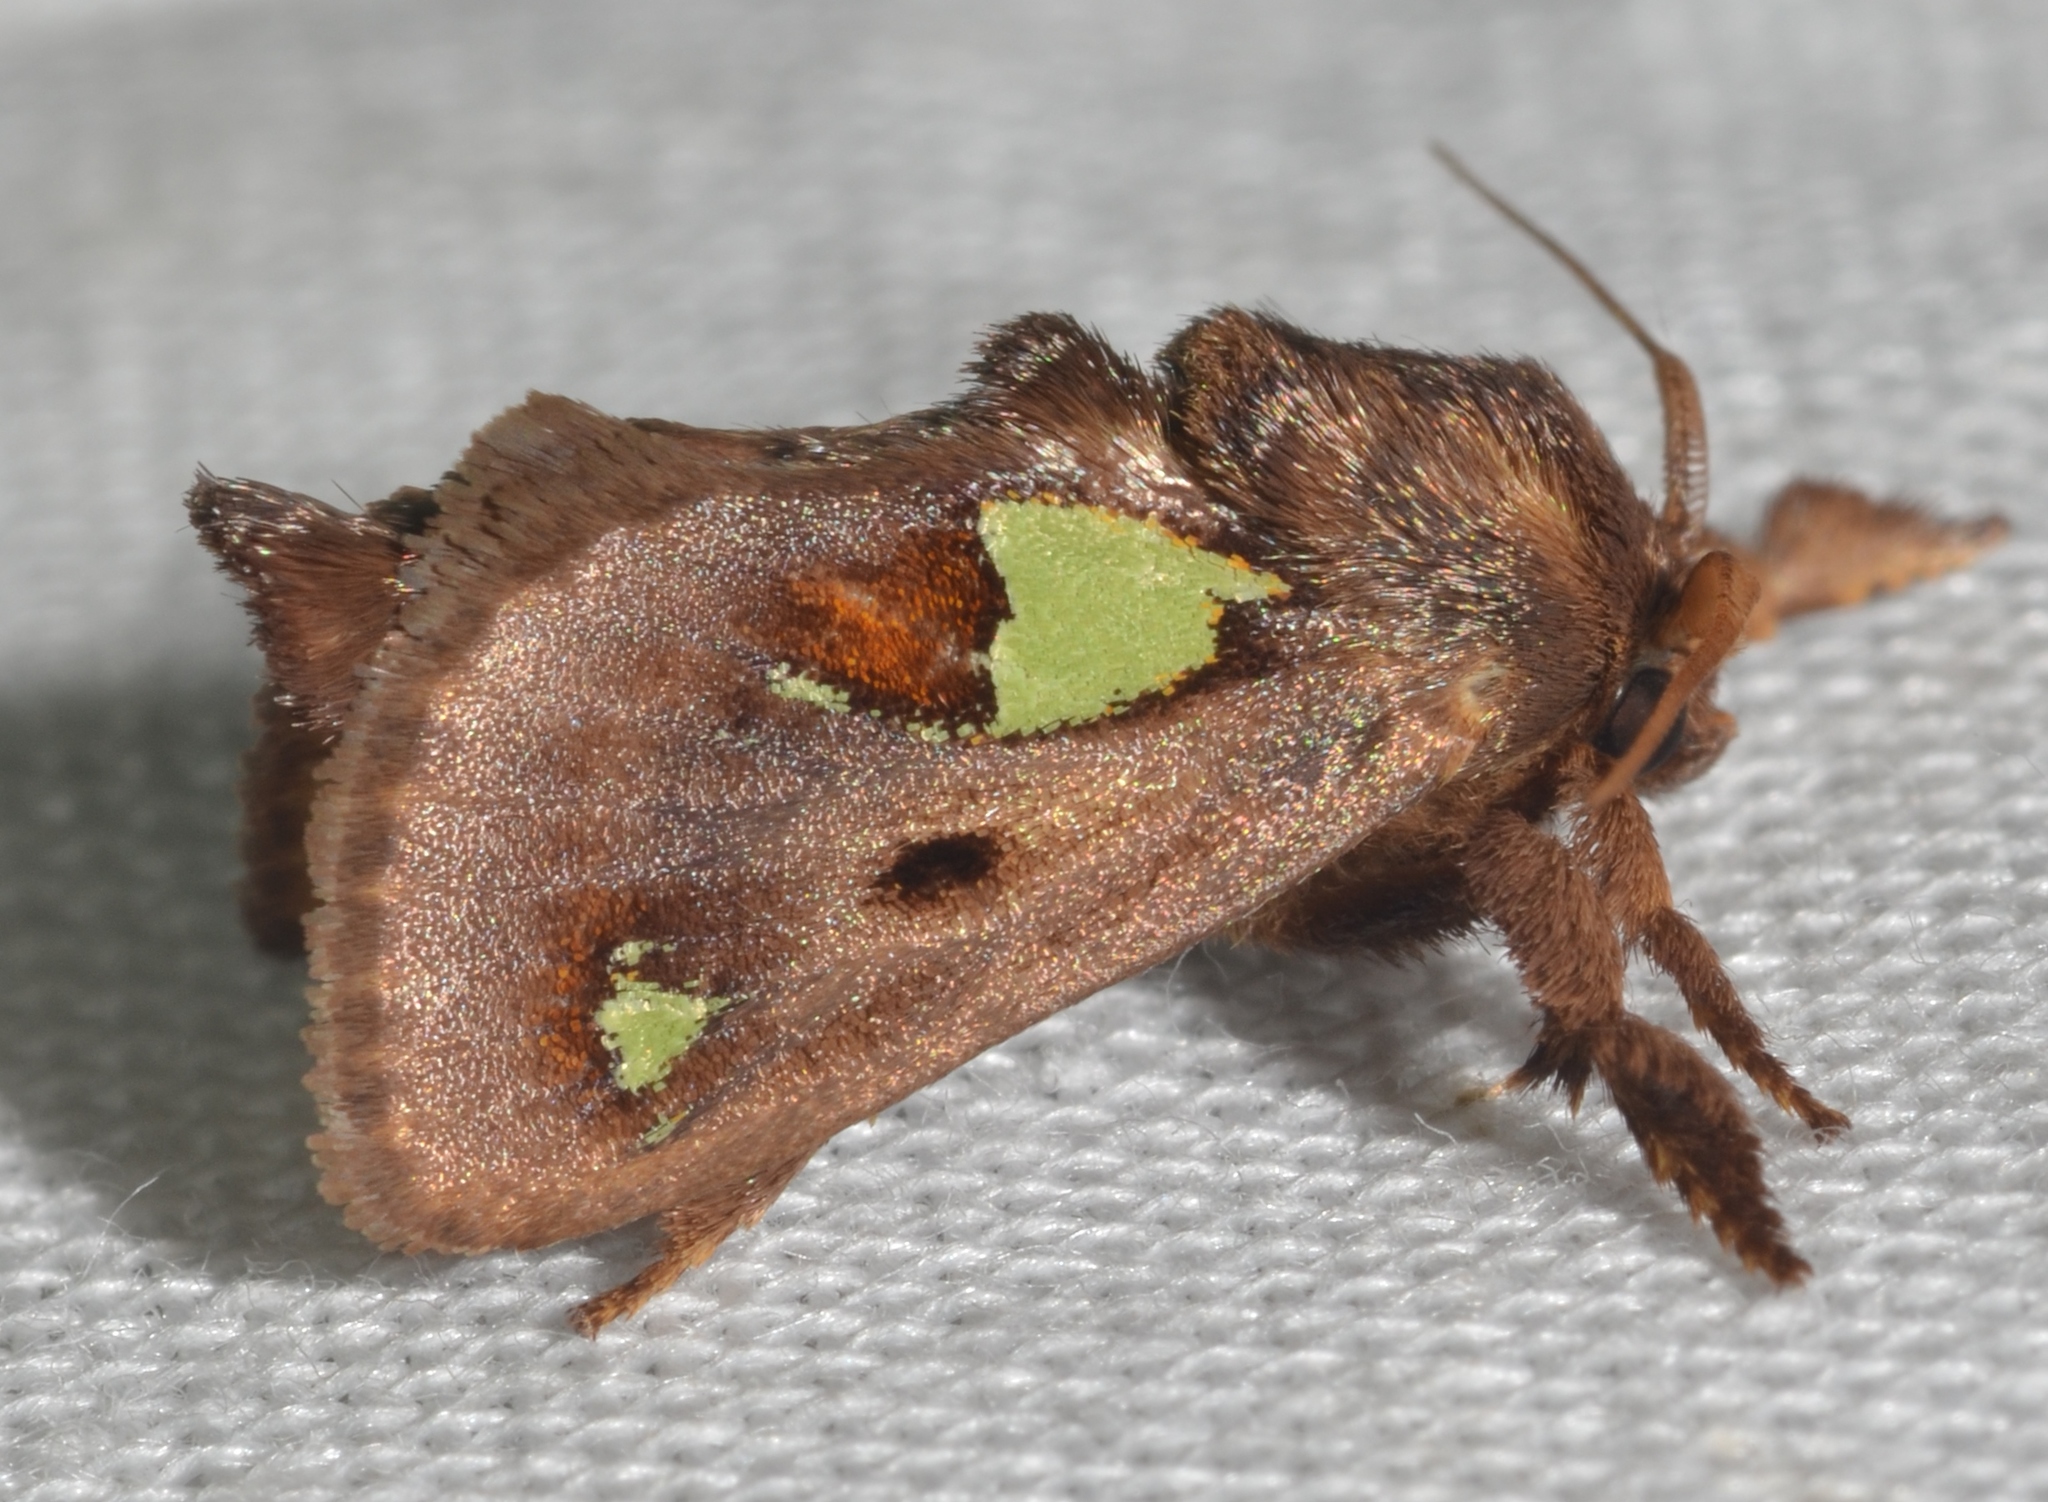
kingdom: Animalia
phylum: Arthropoda
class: Insecta
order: Lepidoptera
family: Limacodidae
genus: Euclea
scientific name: Euclea delphinii
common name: Spiny oak-slug moth
